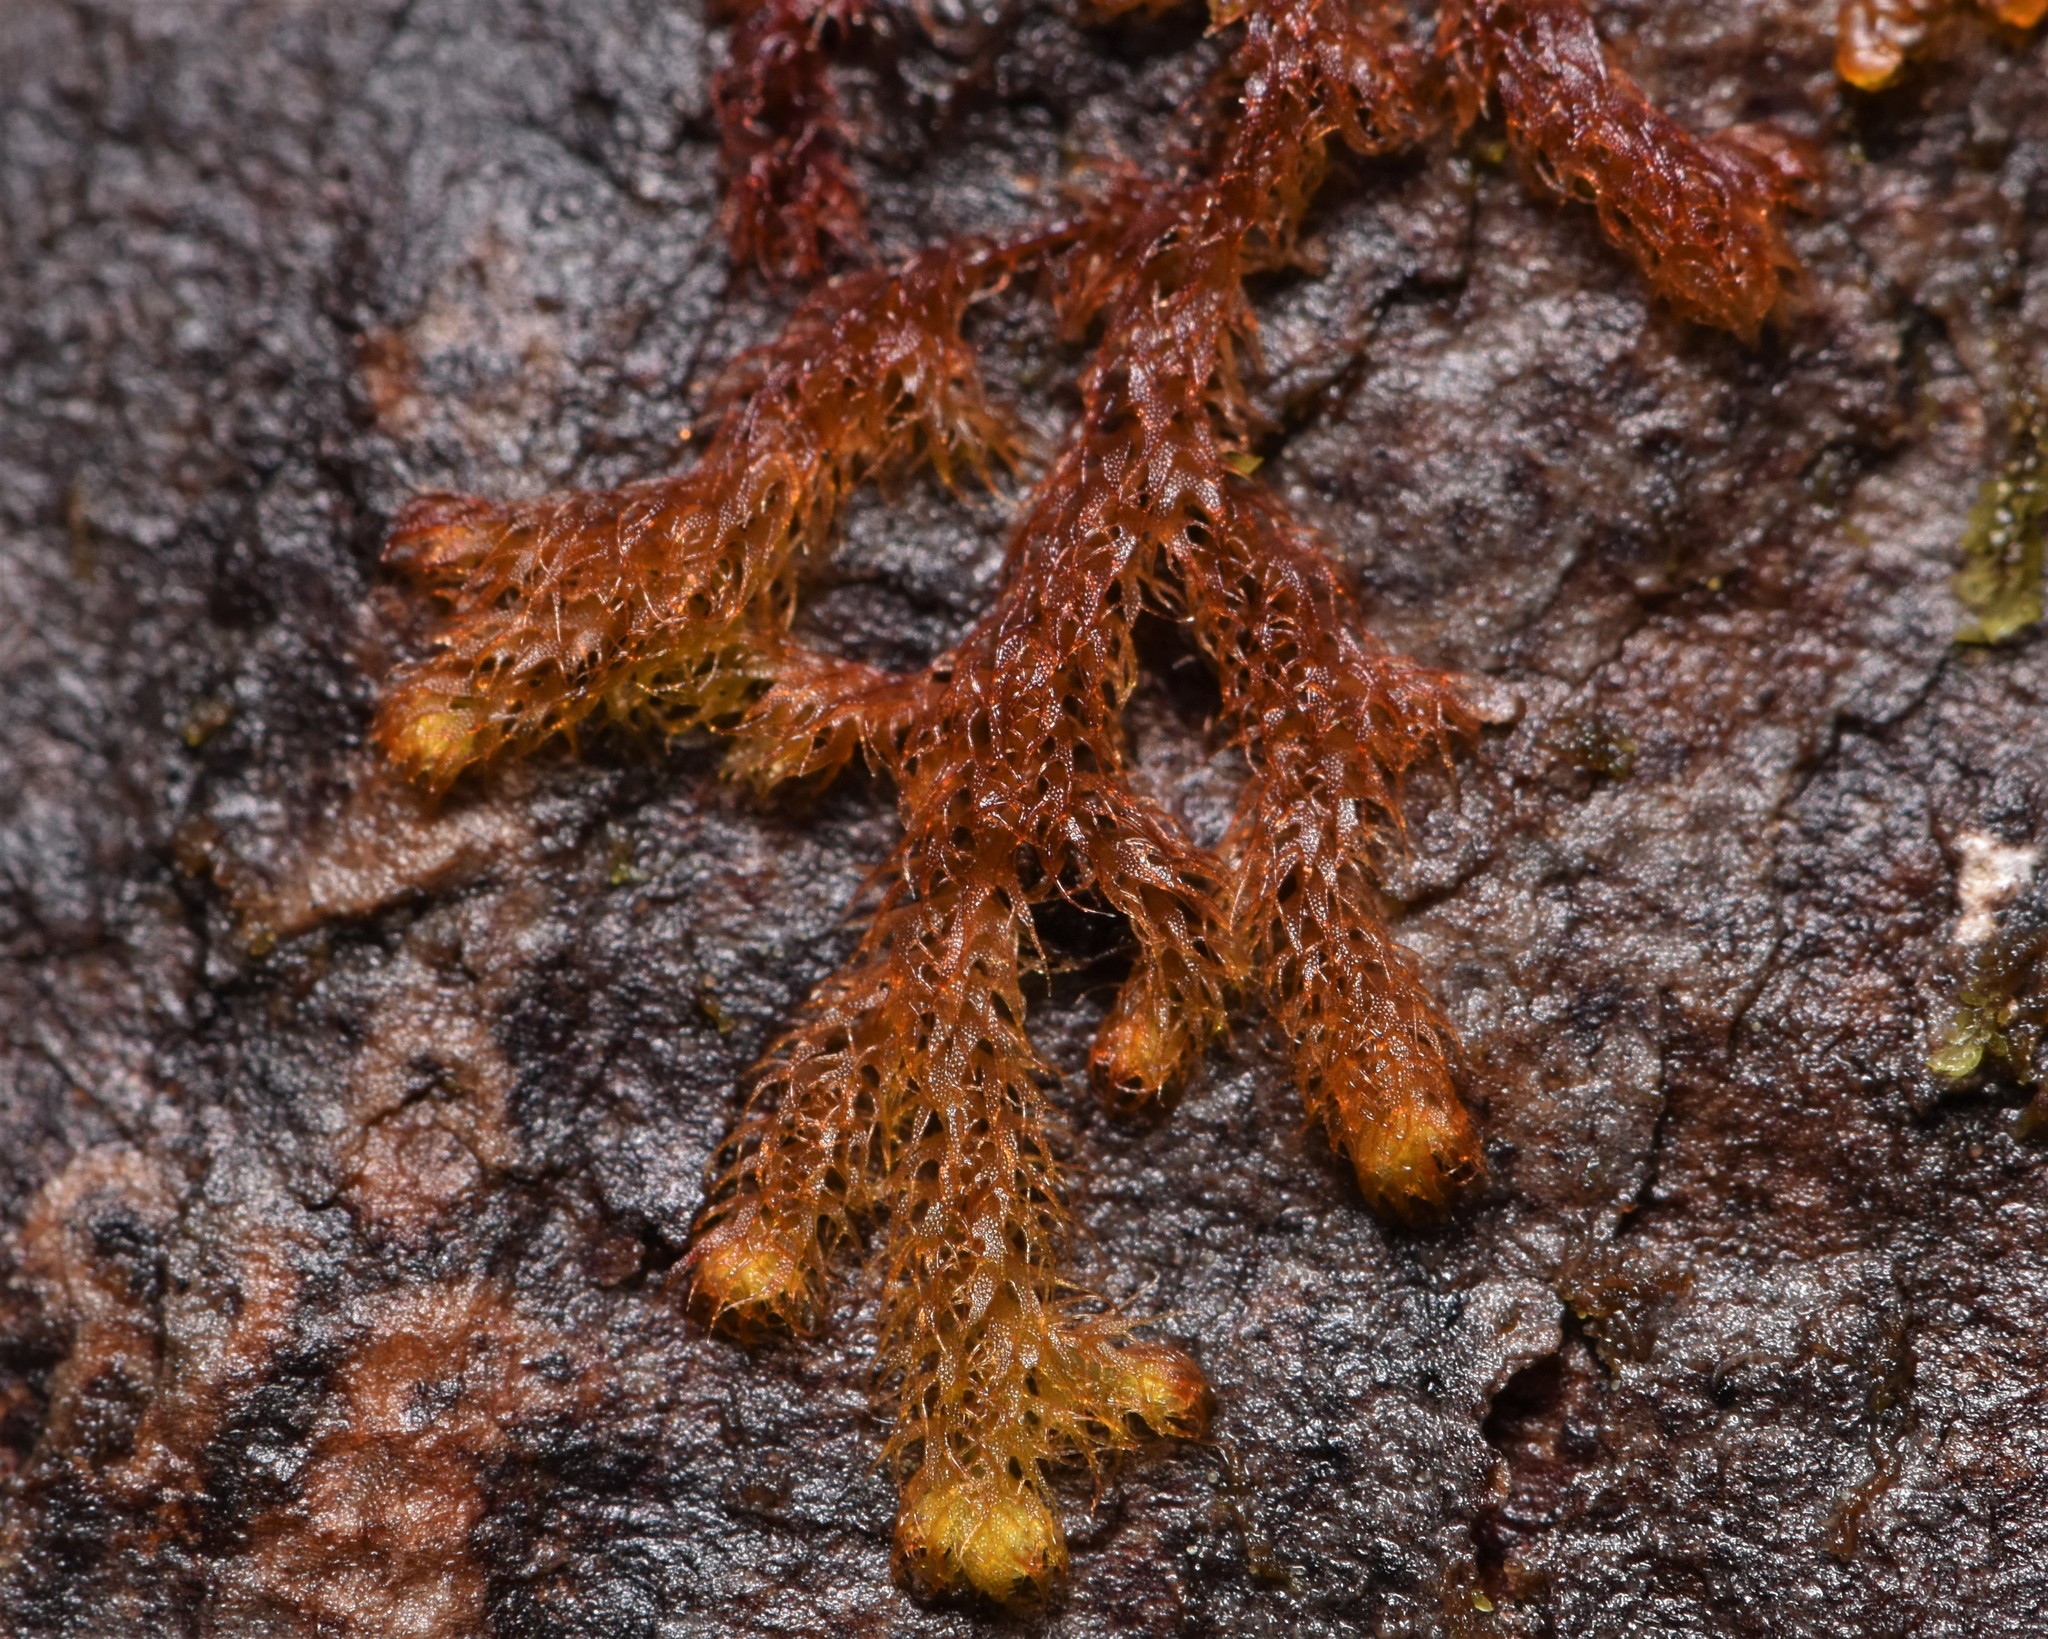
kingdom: Plantae
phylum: Marchantiophyta
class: Jungermanniopsida
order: Ptilidiales
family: Ptilidiaceae
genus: Ptilidium
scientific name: Ptilidium californicum
